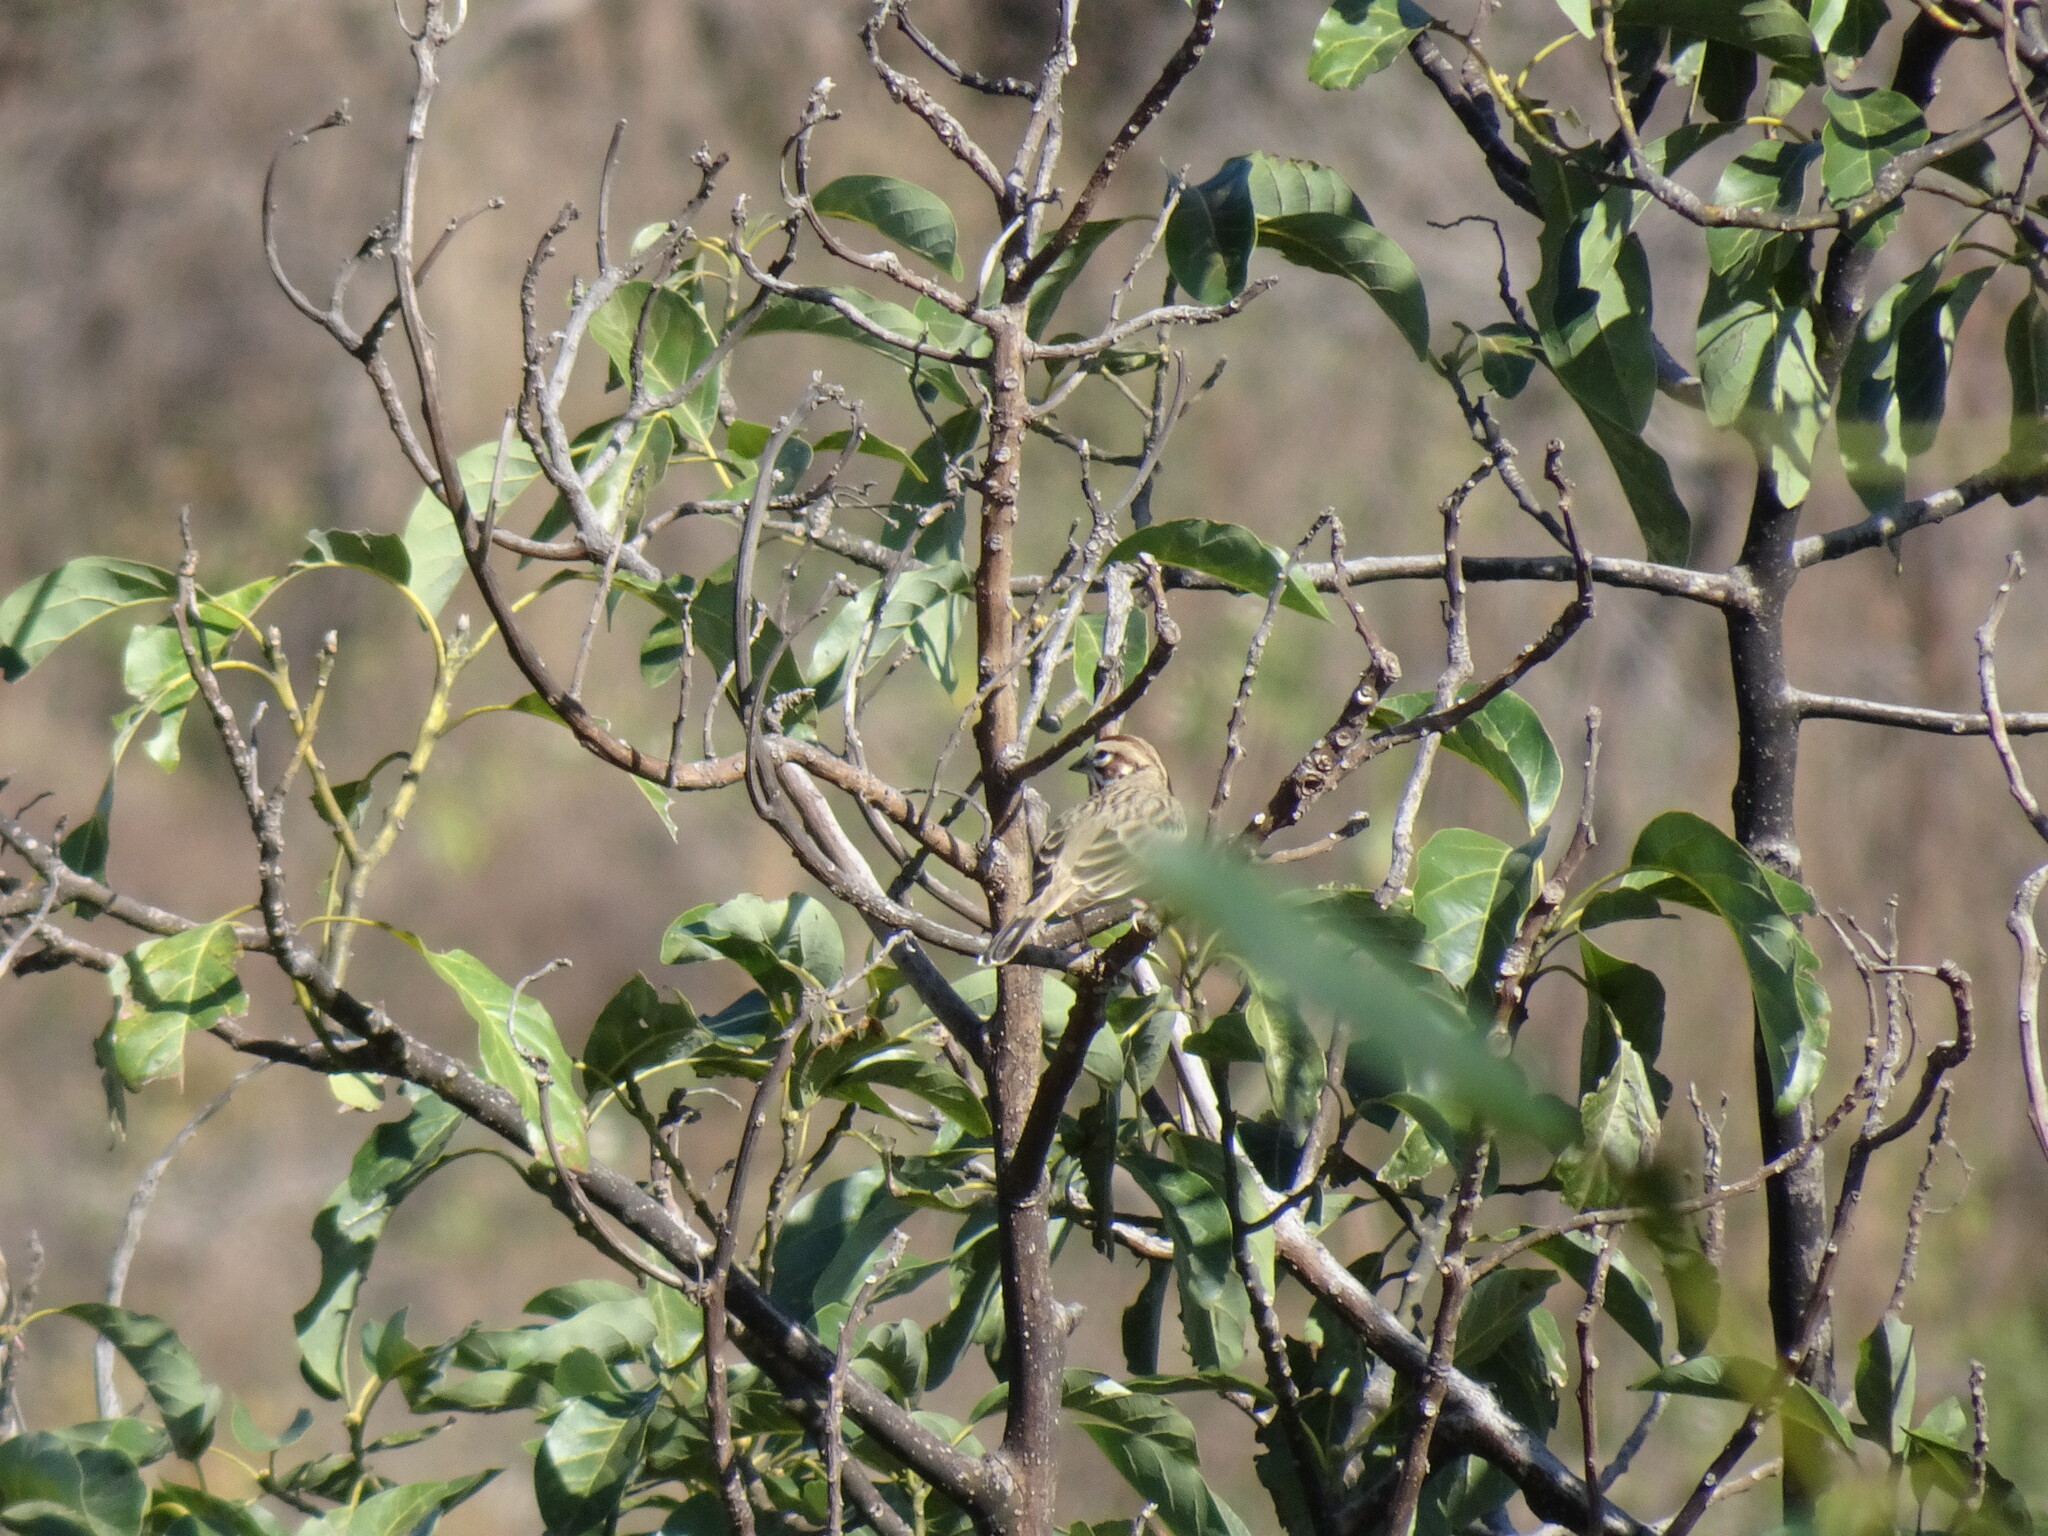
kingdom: Animalia
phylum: Chordata
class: Aves
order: Passeriformes
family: Passerellidae
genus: Chondestes
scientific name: Chondestes grammacus
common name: Lark sparrow
